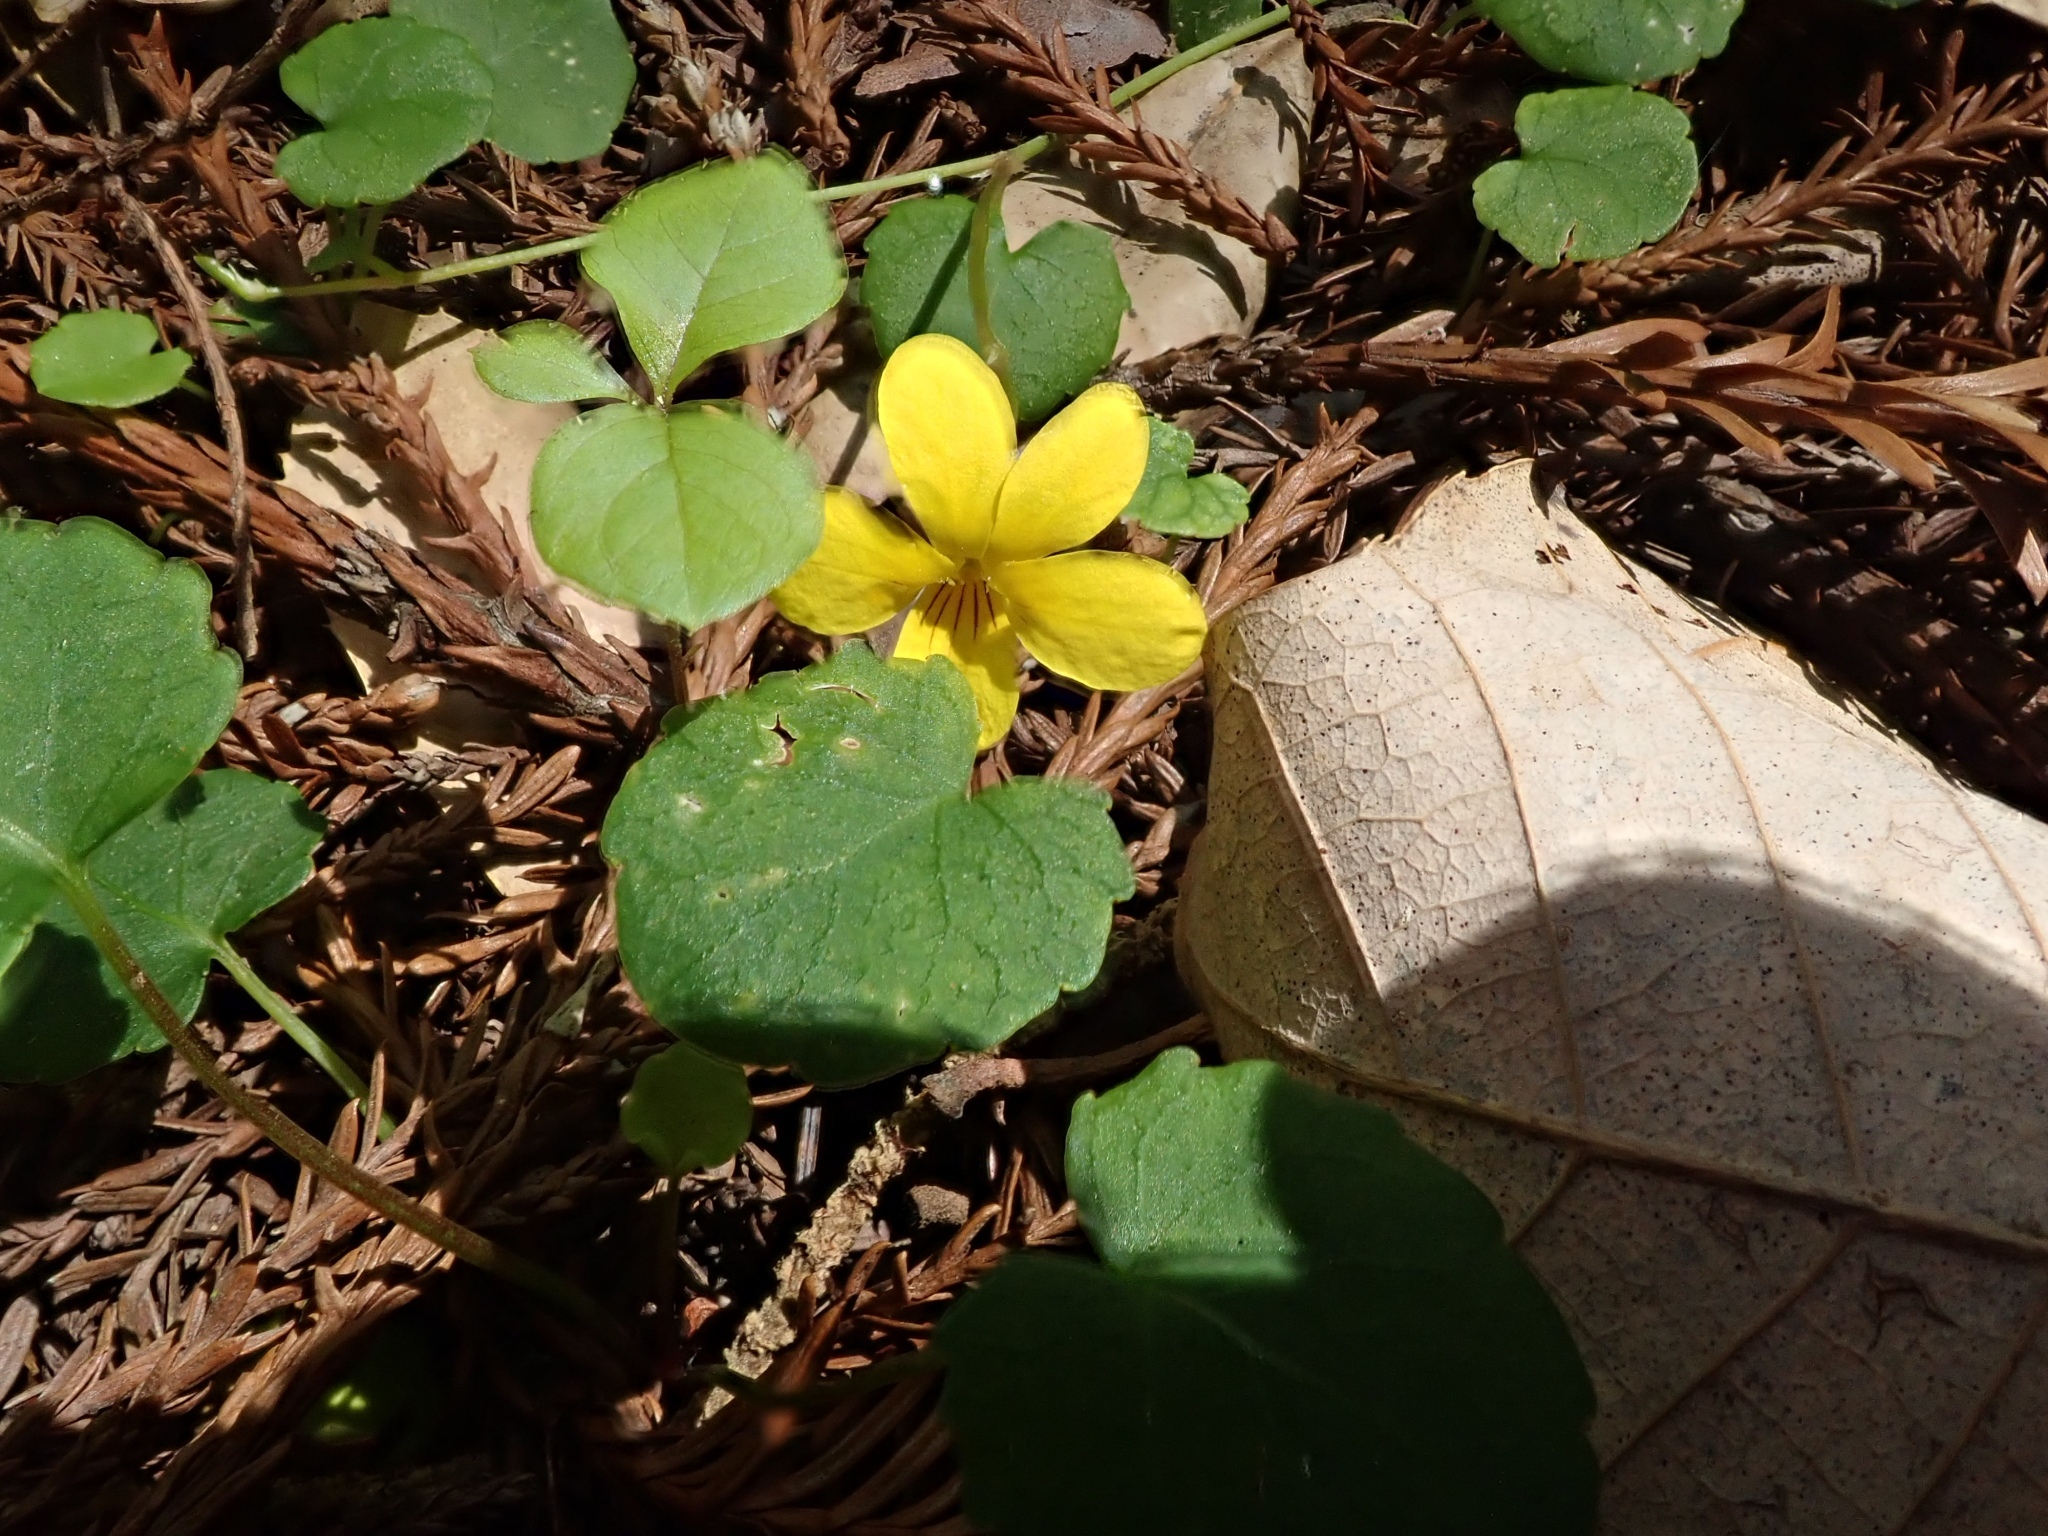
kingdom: Plantae
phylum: Tracheophyta
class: Magnoliopsida
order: Malpighiales
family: Violaceae
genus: Viola
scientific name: Viola sempervirens
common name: Evergreen violet
